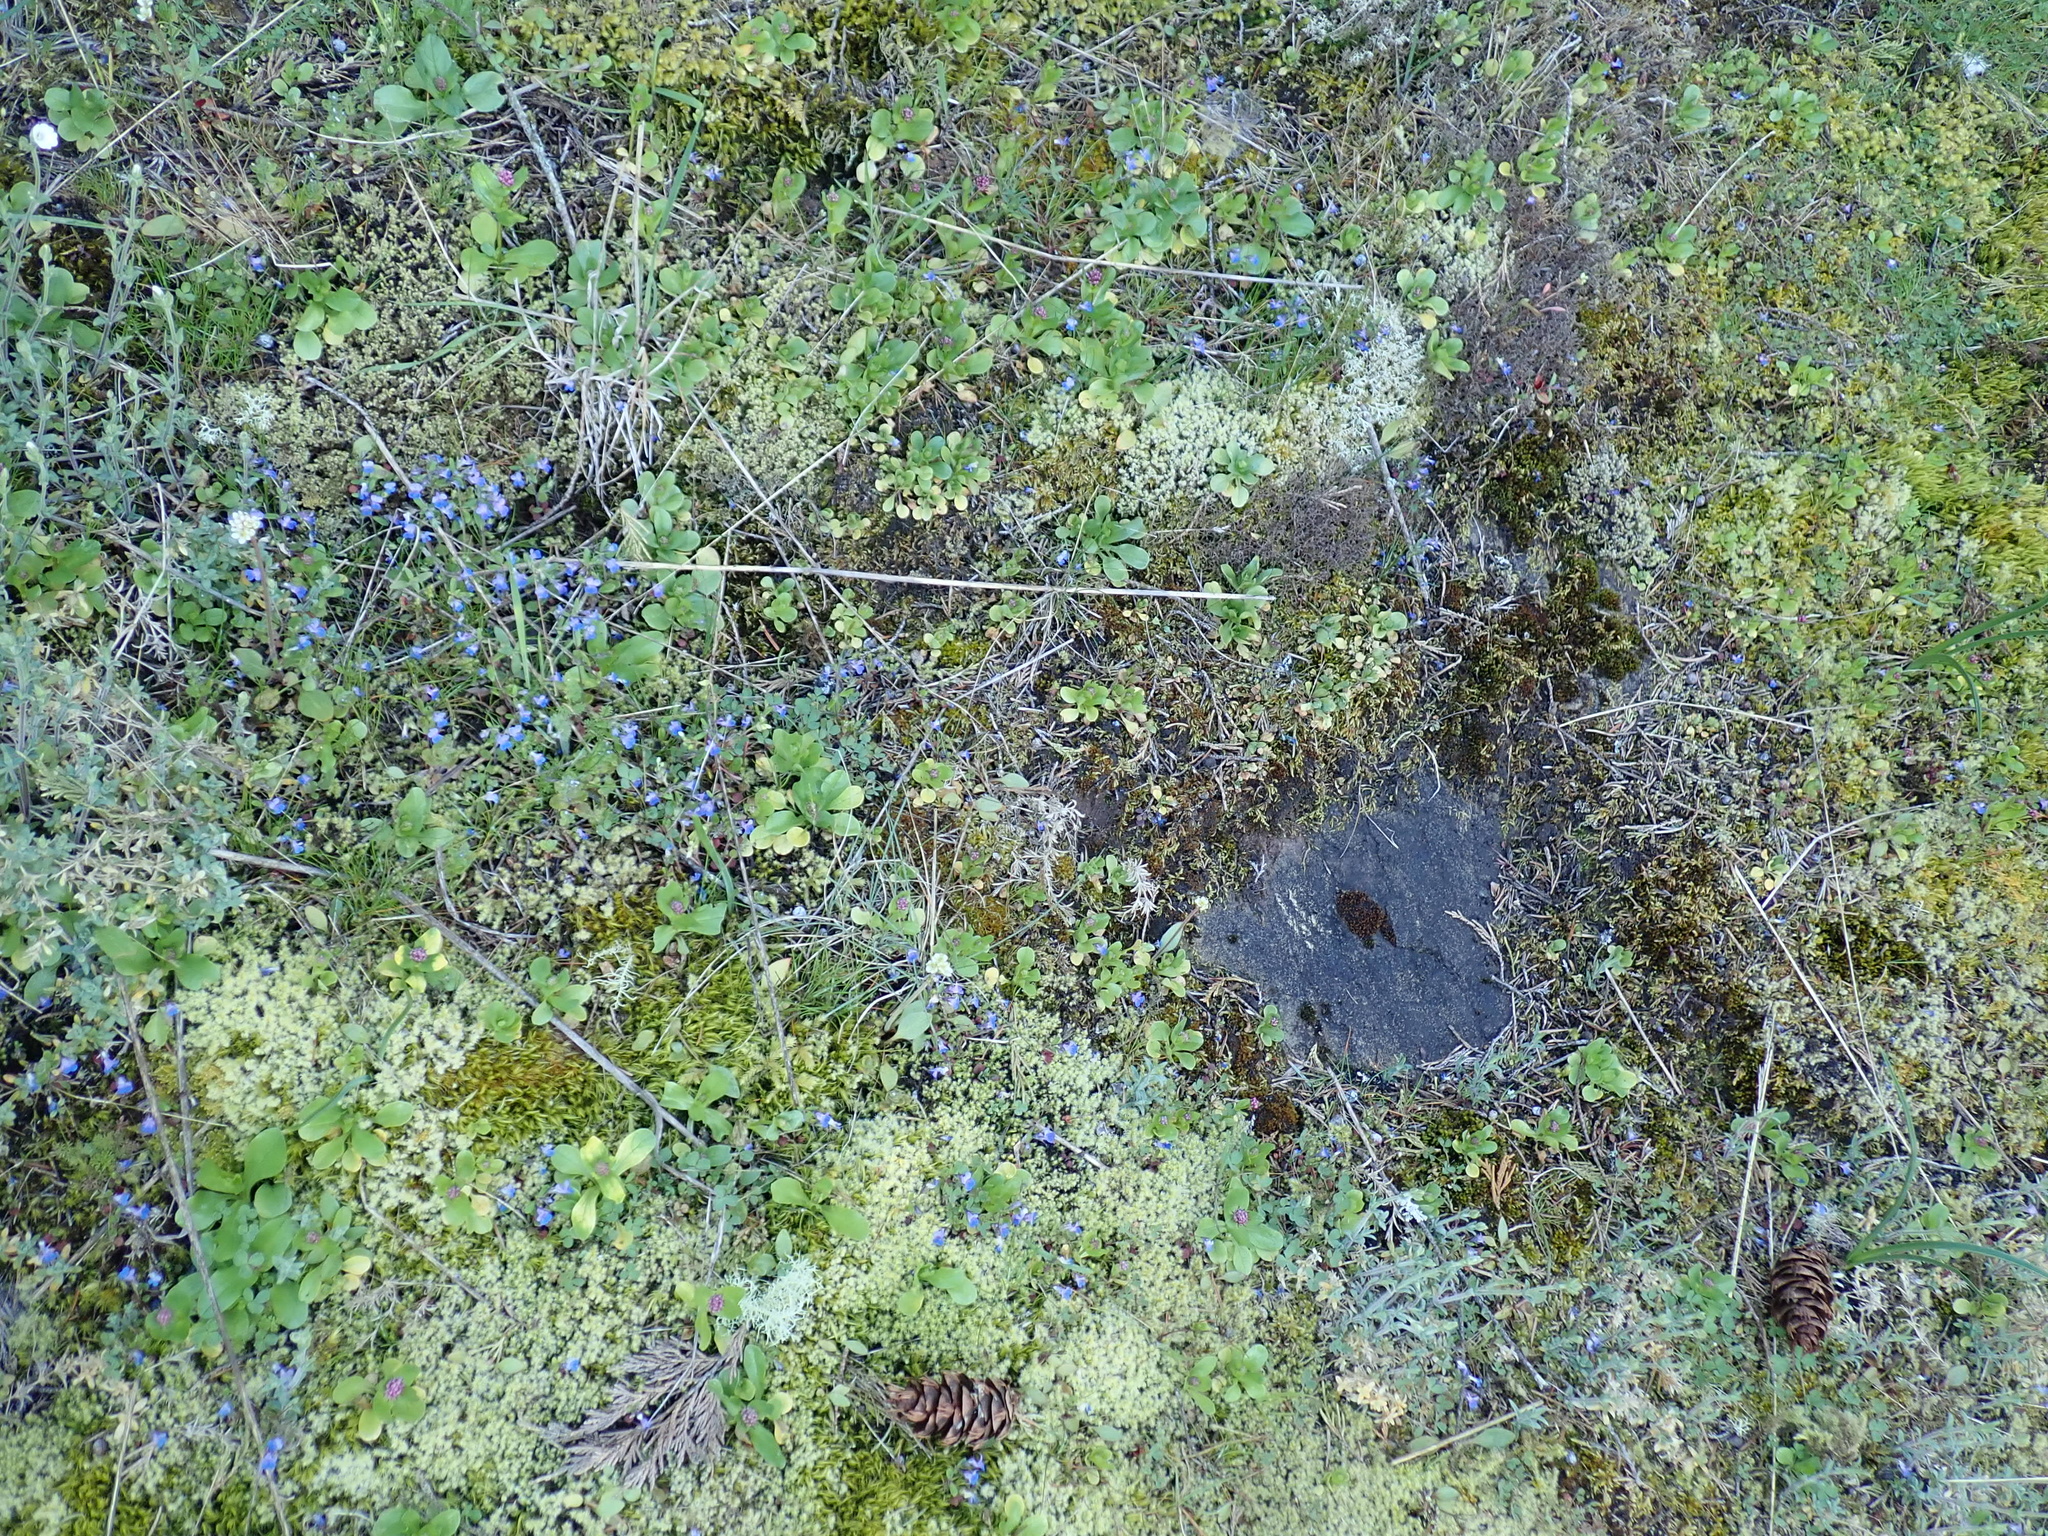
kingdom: Plantae
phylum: Tracheophyta
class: Magnoliopsida
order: Lamiales
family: Plantaginaceae
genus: Collinsia
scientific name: Collinsia parviflora
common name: Blue-lips
